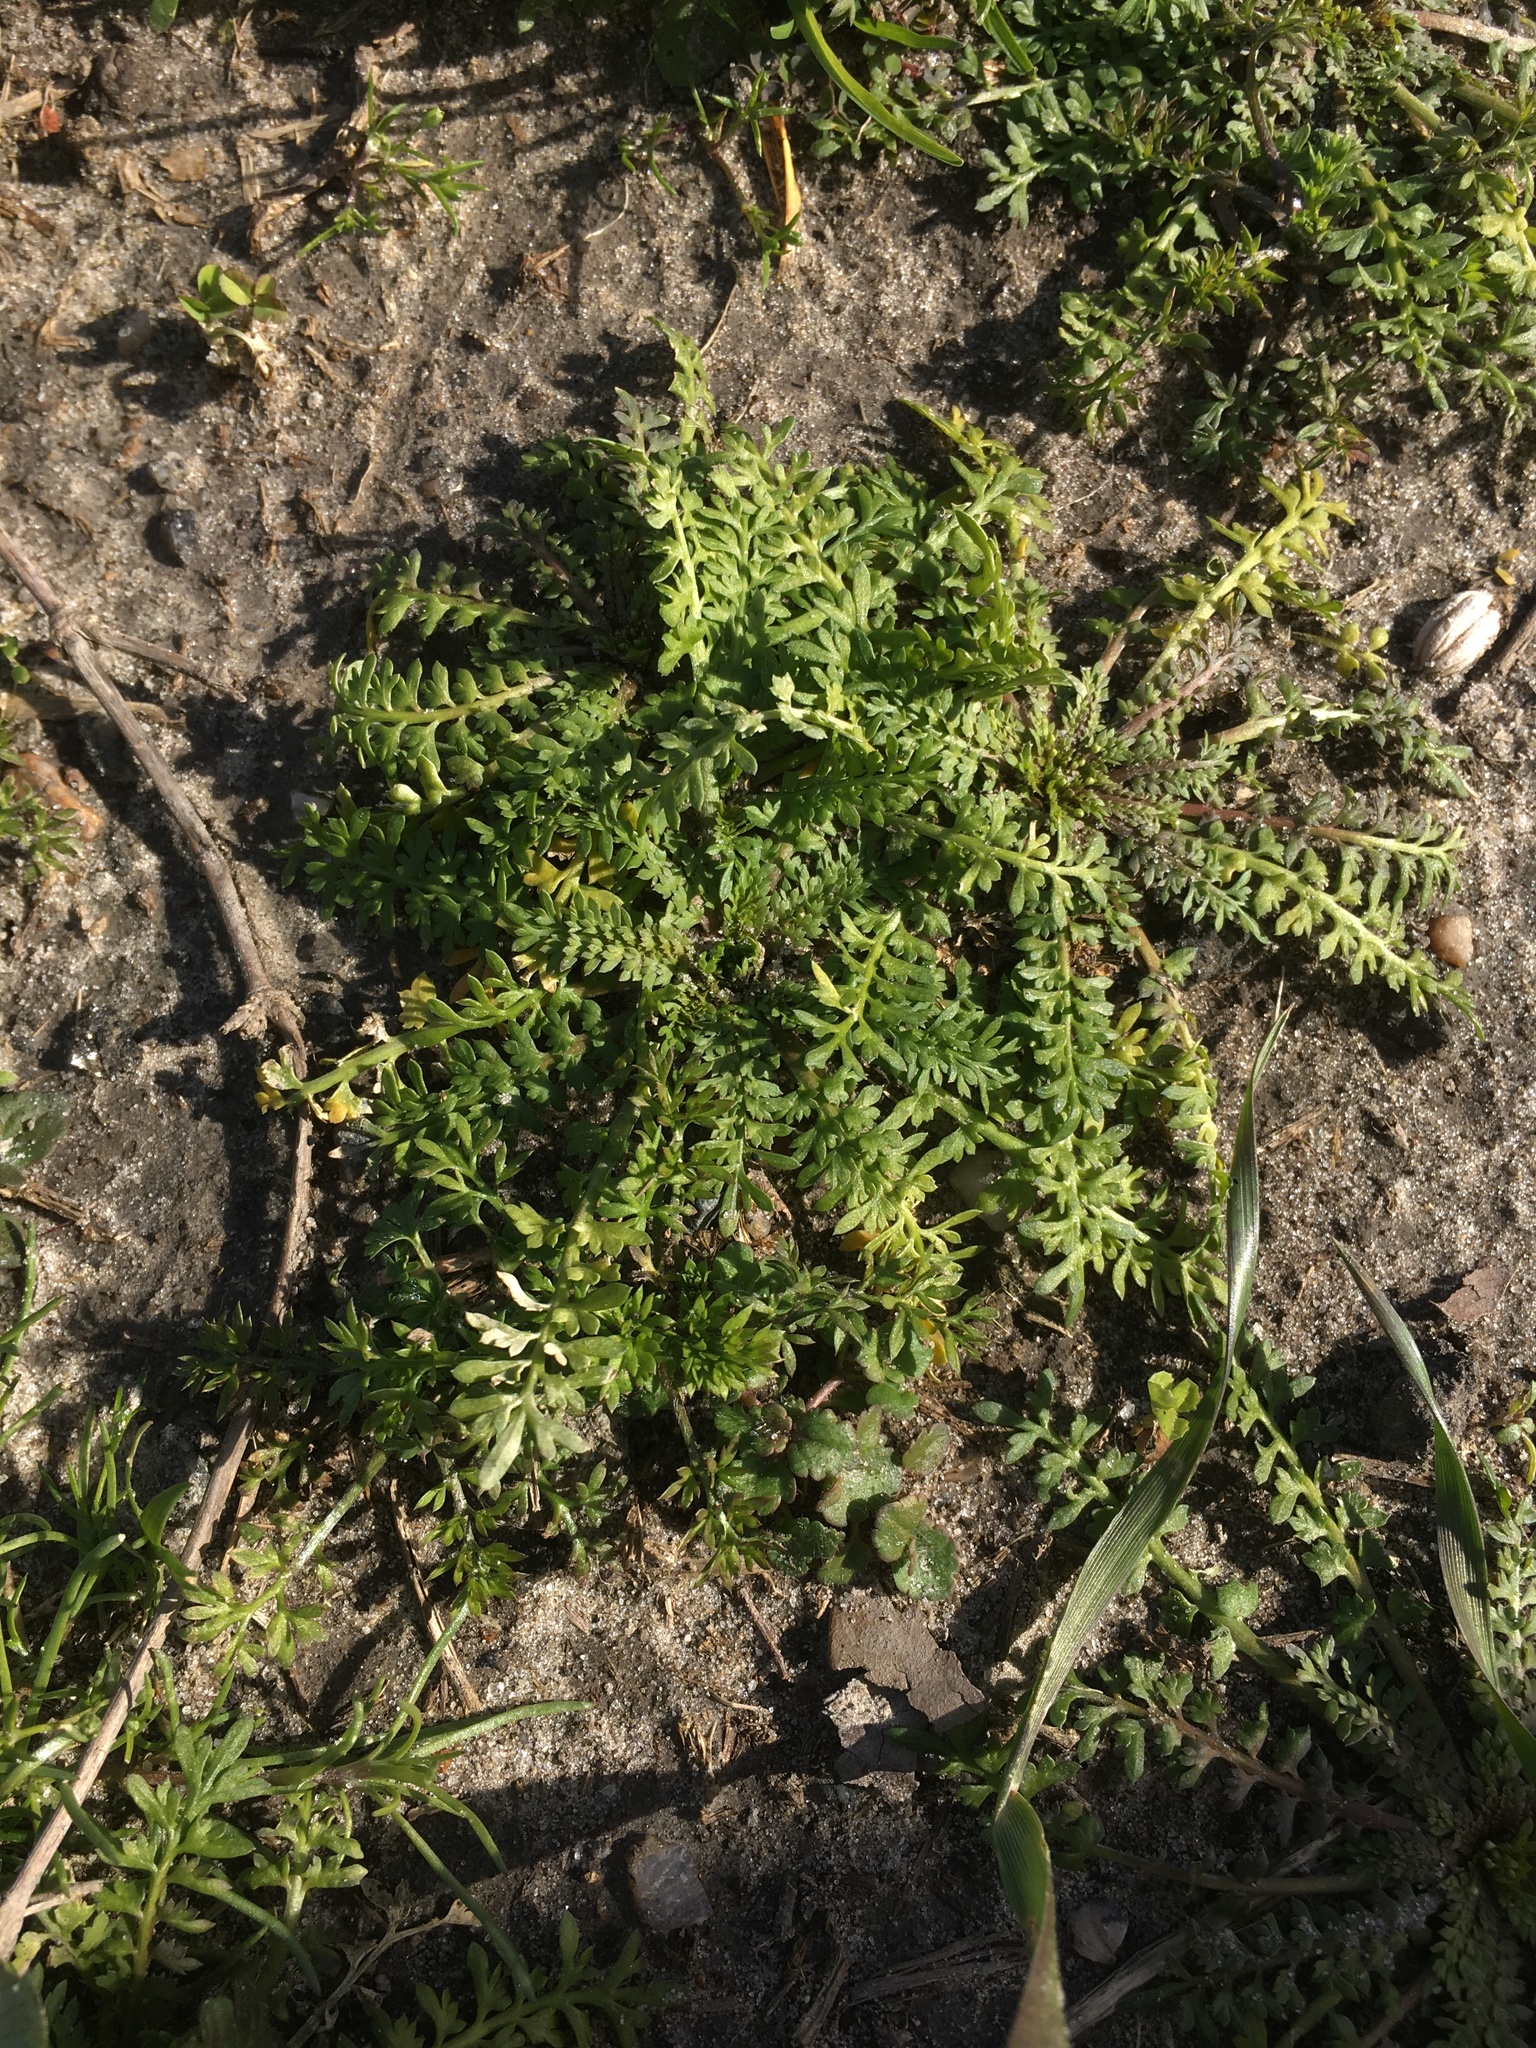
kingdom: Plantae
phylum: Tracheophyta
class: Magnoliopsida
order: Brassicales
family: Brassicaceae
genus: Lepidium
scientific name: Lepidium didymum
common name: Lesser swinecress
